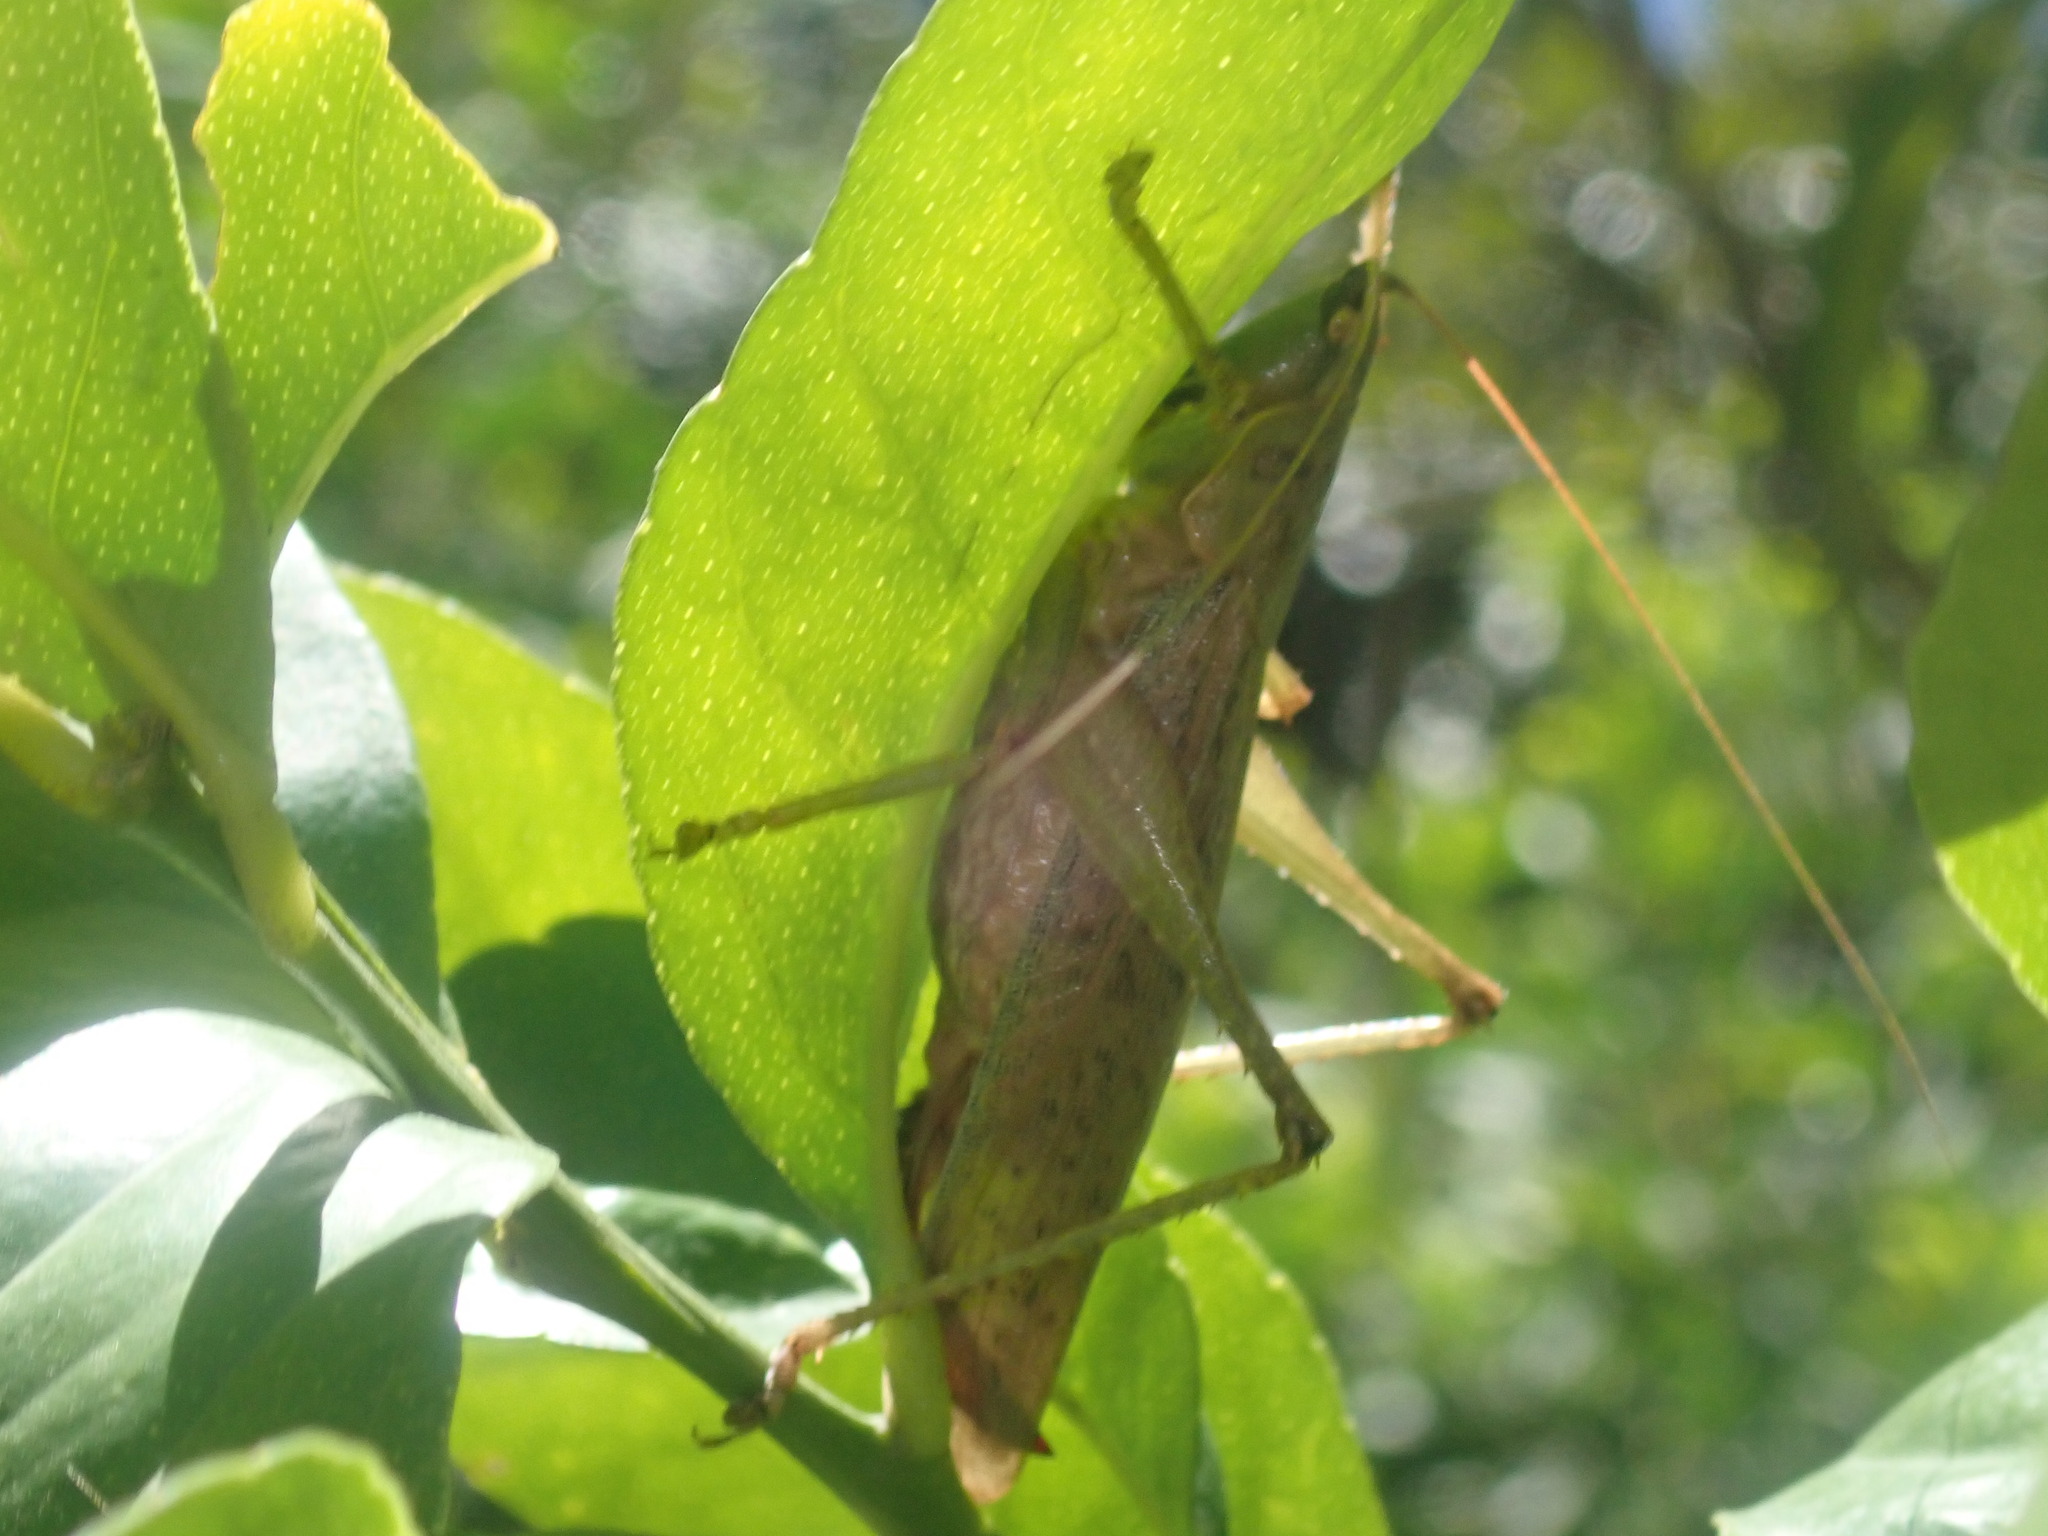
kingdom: Animalia
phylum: Arthropoda
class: Insecta
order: Orthoptera
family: Tettigoniidae
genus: Austrosalomona
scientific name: Austrosalomona falcata
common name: Olive-green coastal katydid
